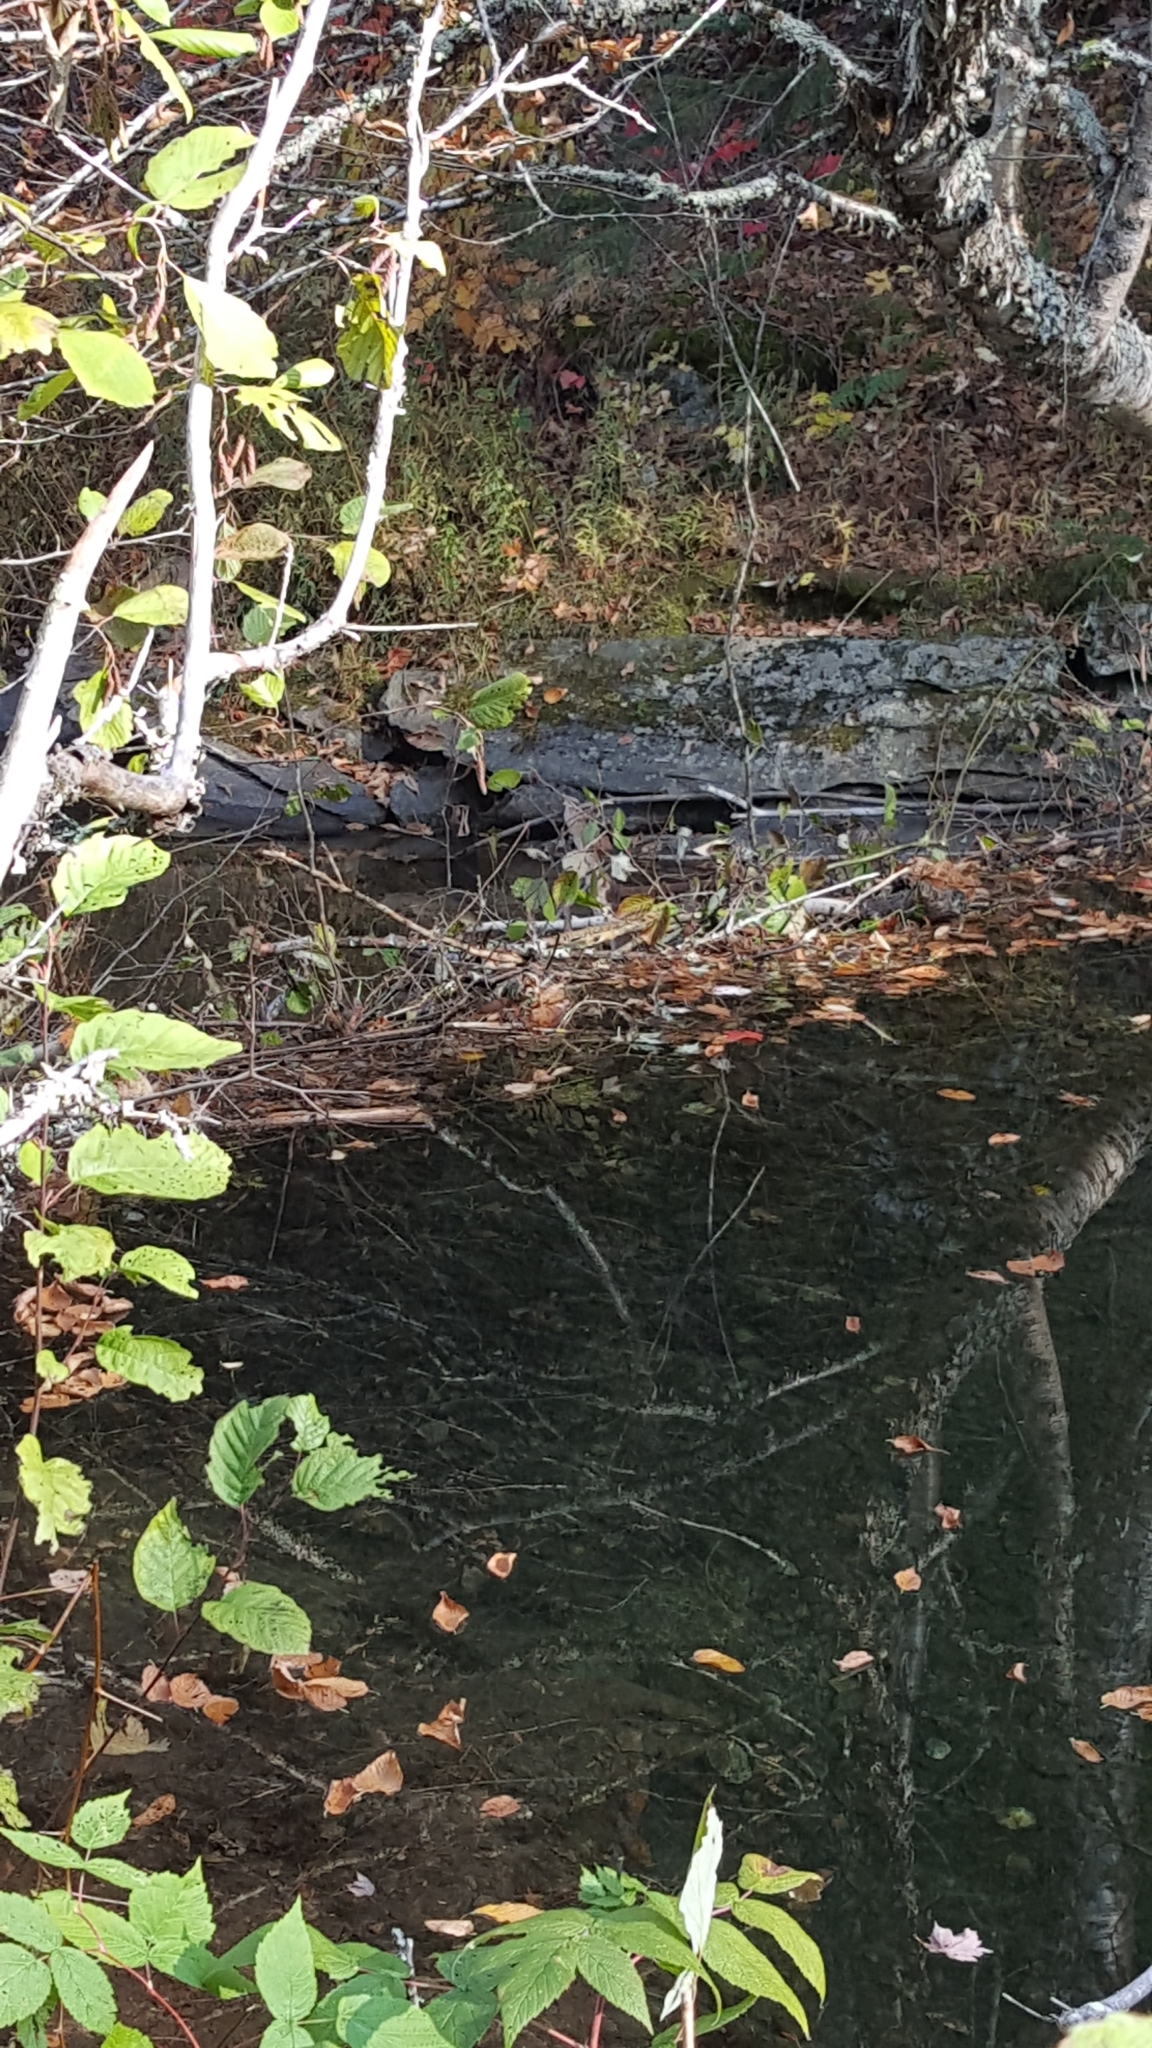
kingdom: Animalia
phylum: Chordata
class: Mammalia
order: Rodentia
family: Castoridae
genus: Castor
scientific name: Castor canadensis
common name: American beaver
